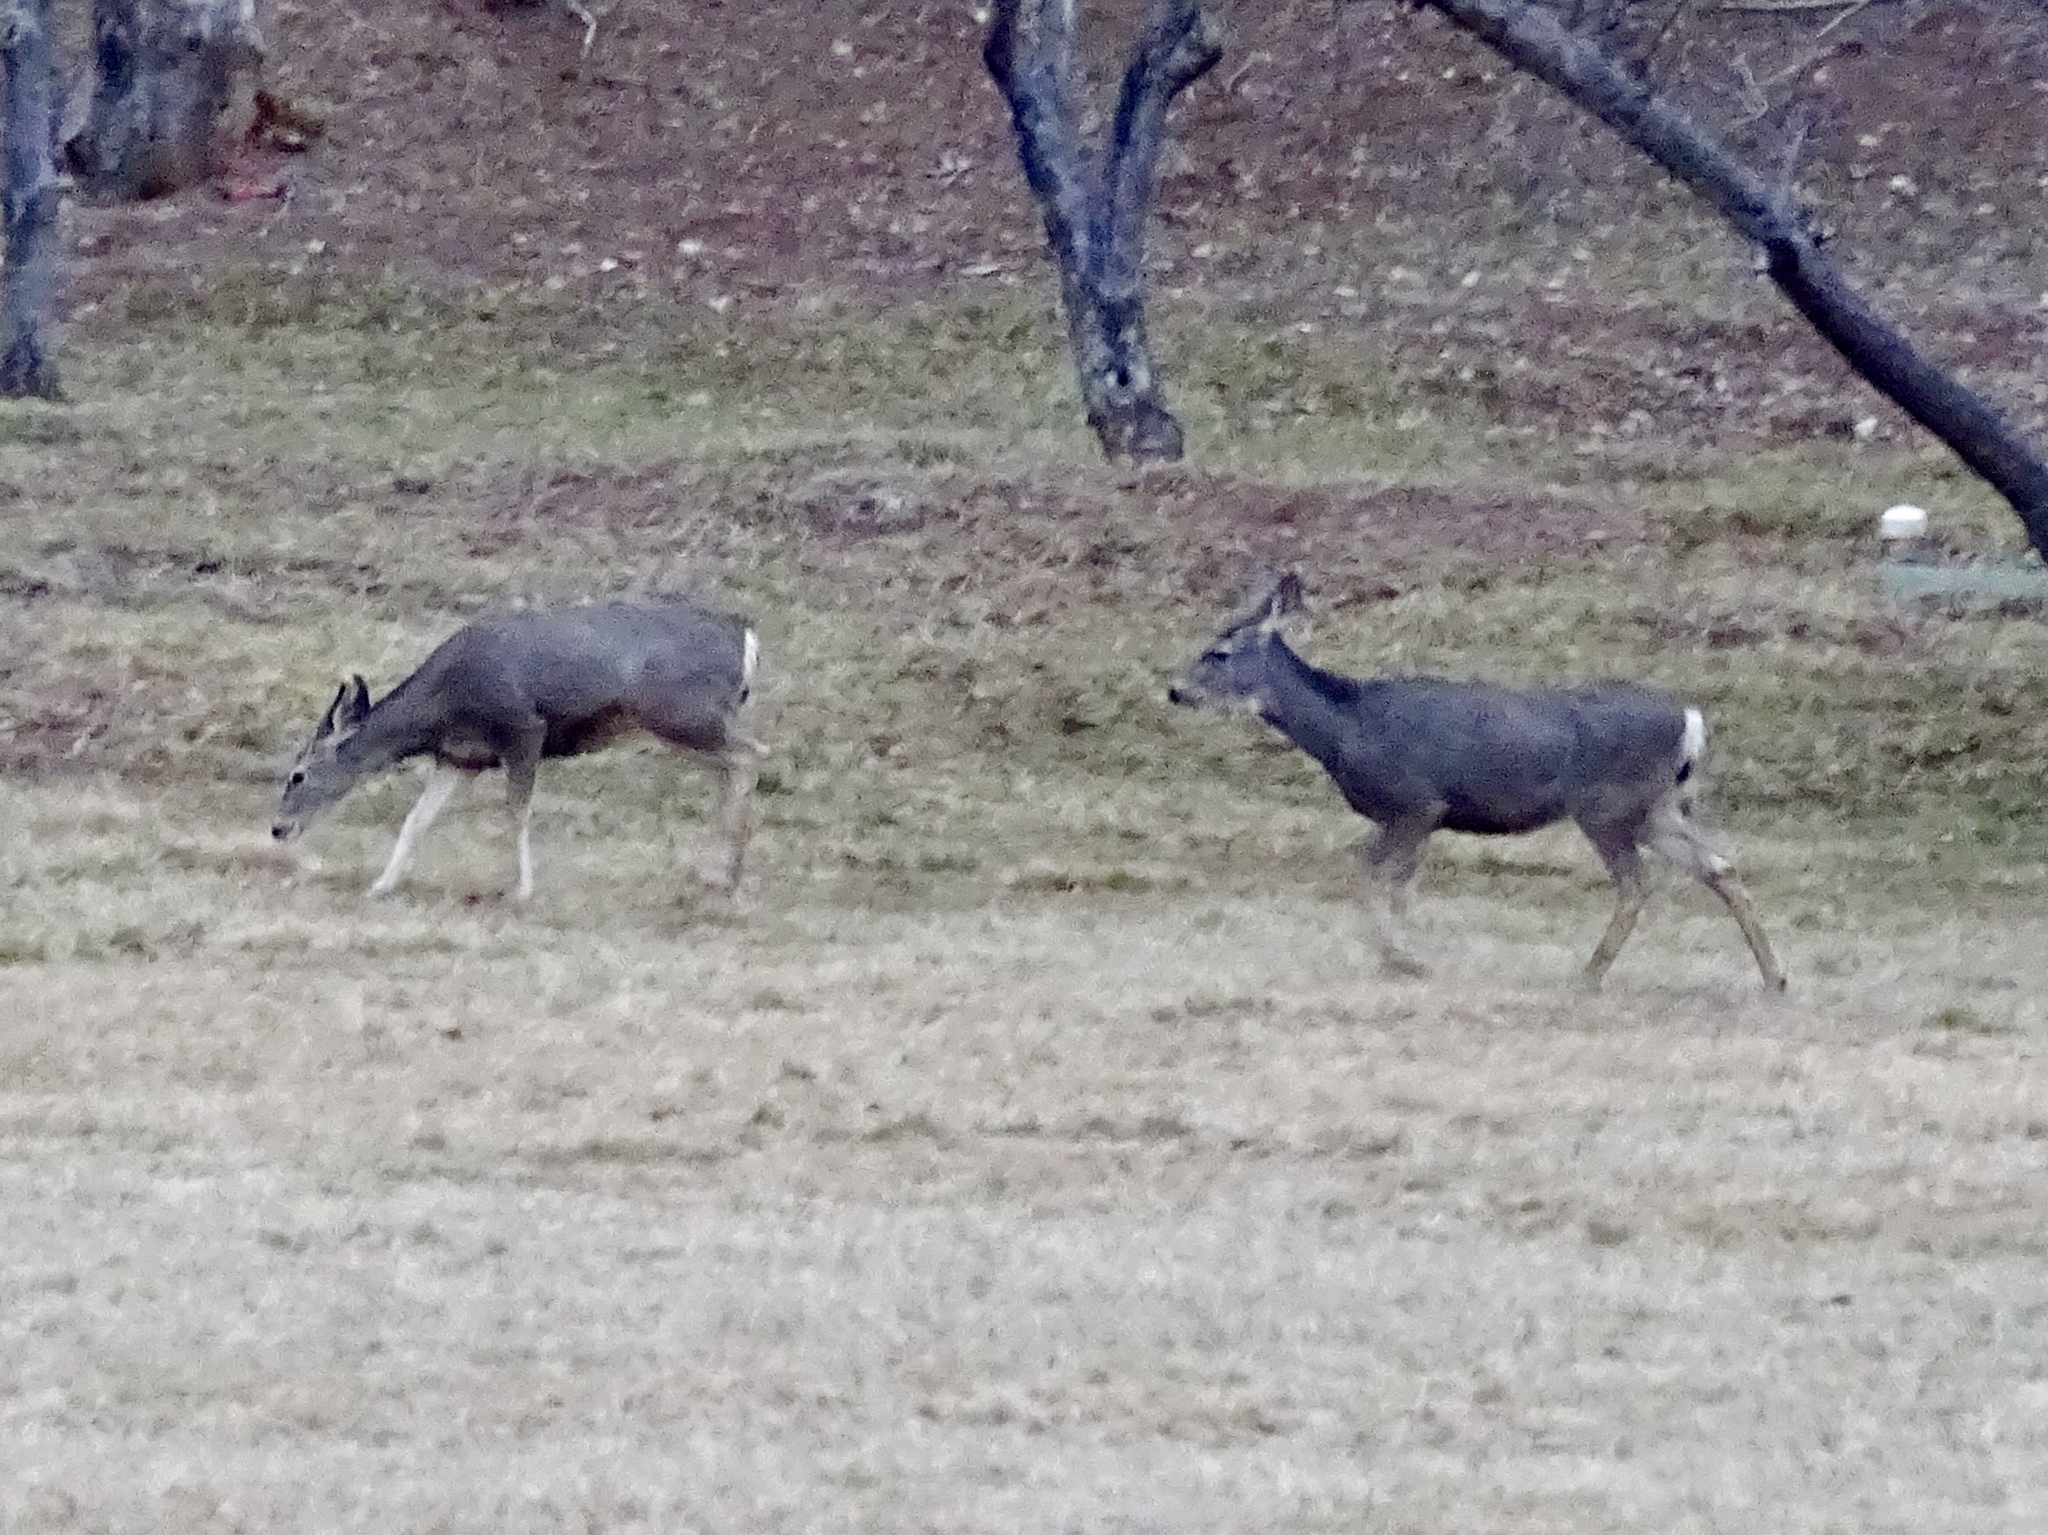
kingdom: Animalia
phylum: Chordata
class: Mammalia
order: Artiodactyla
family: Cervidae
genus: Odocoileus
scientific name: Odocoileus hemionus
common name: Mule deer
